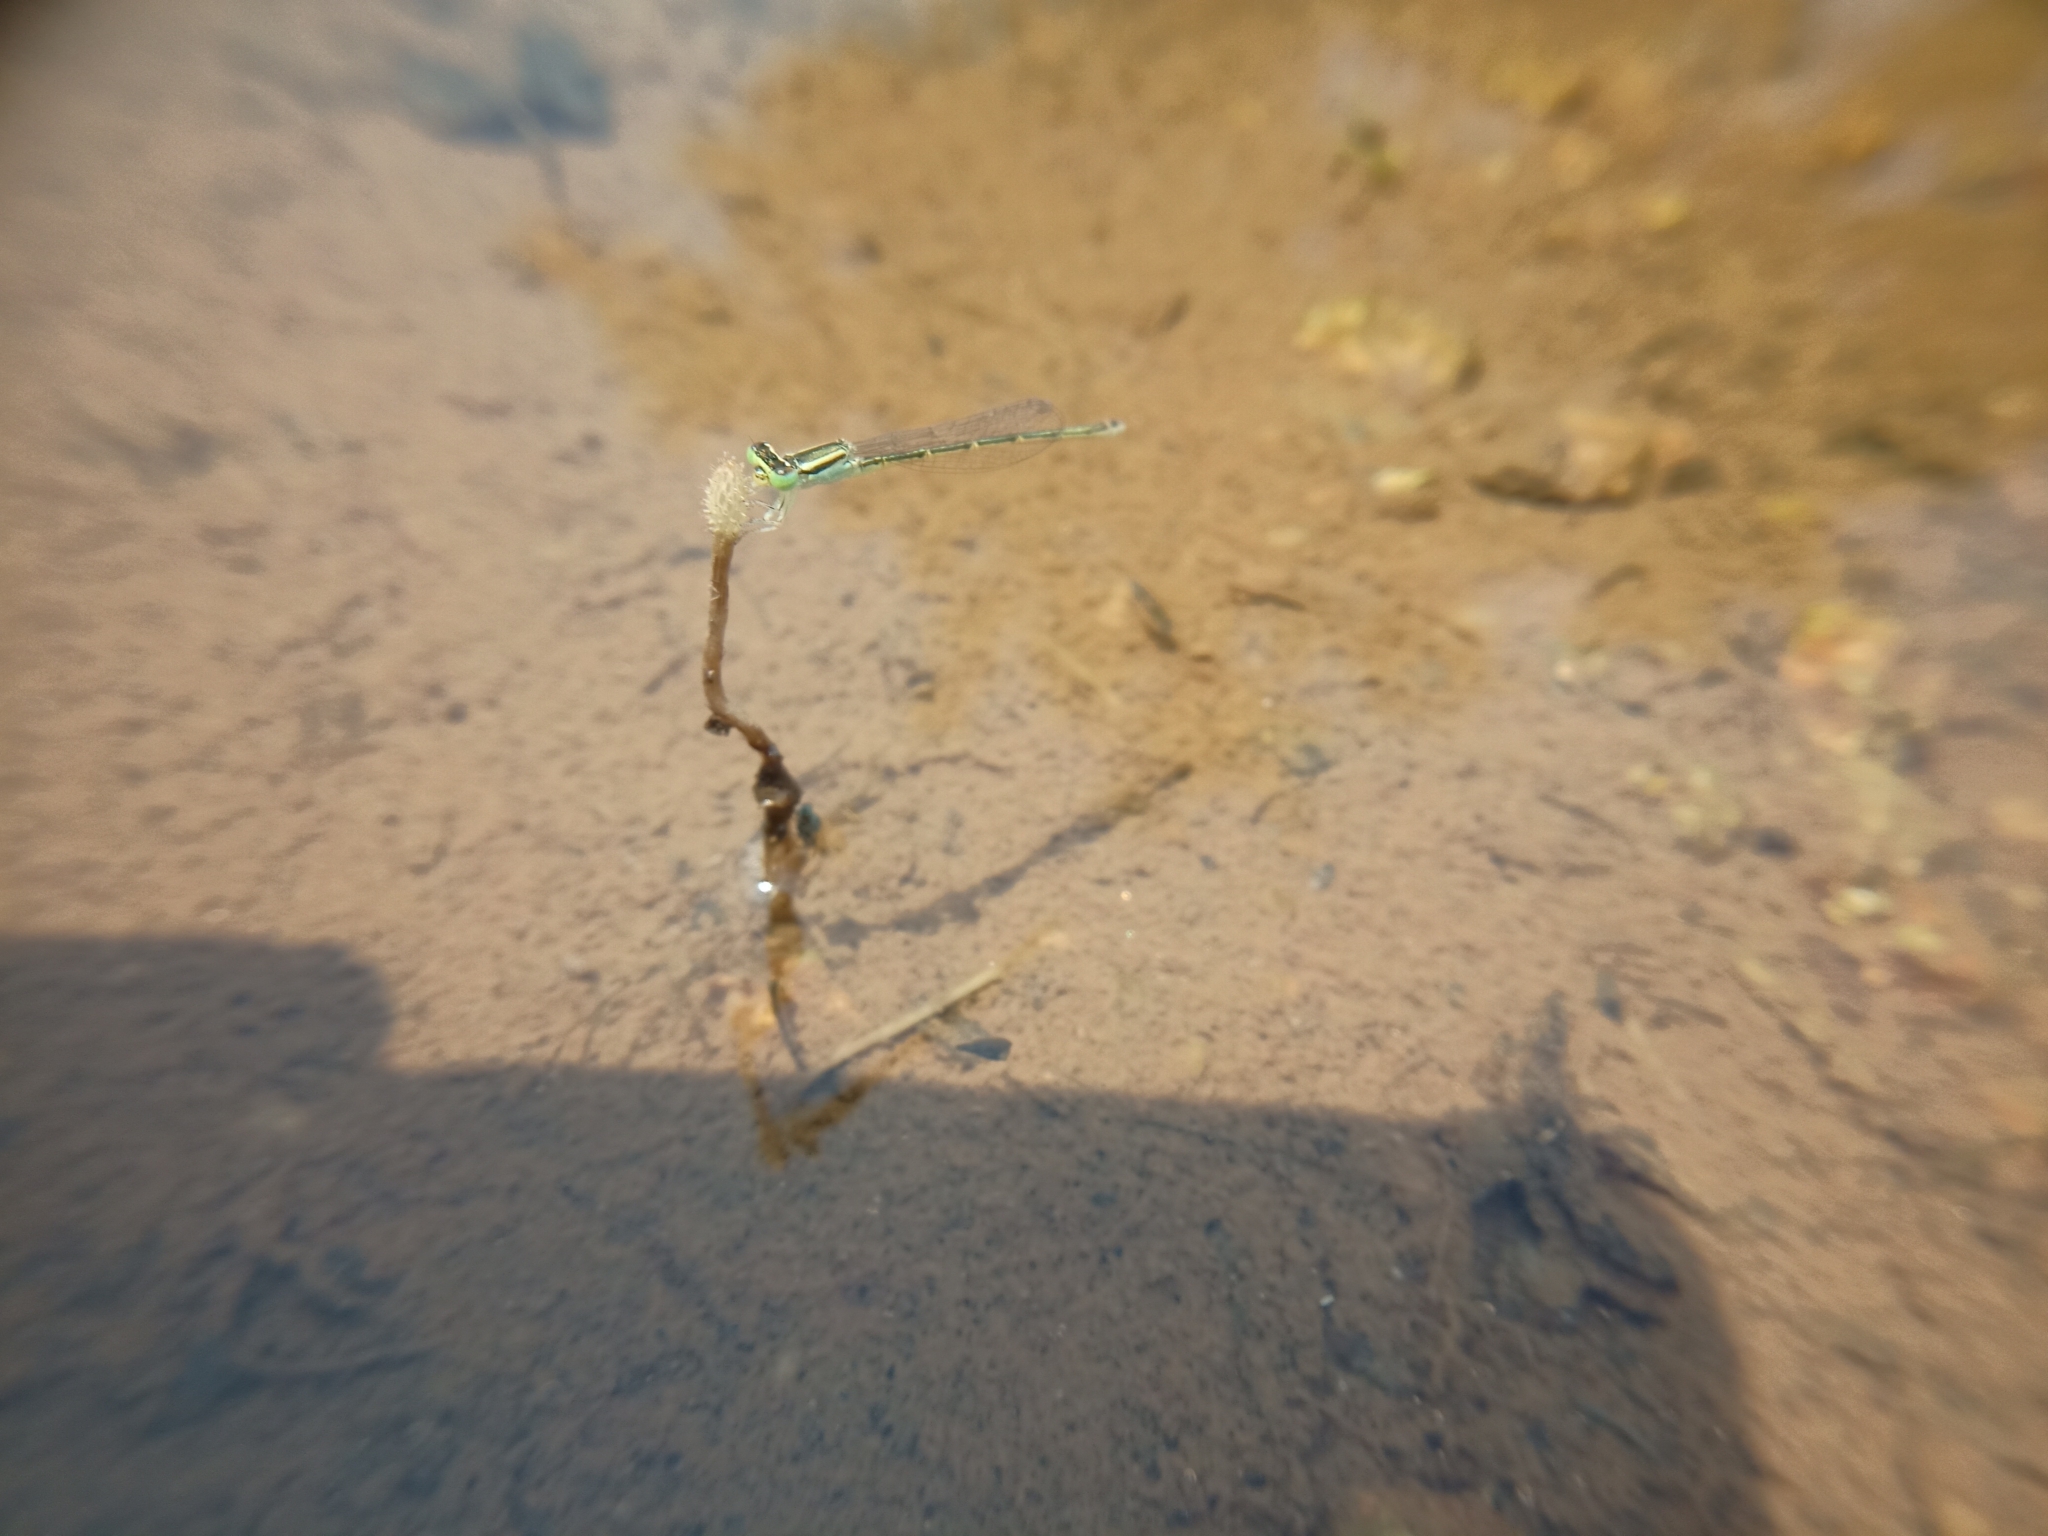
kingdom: Animalia
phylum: Arthropoda
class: Insecta
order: Odonata
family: Coenagrionidae
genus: Ischnura
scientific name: Ischnura rubilio
